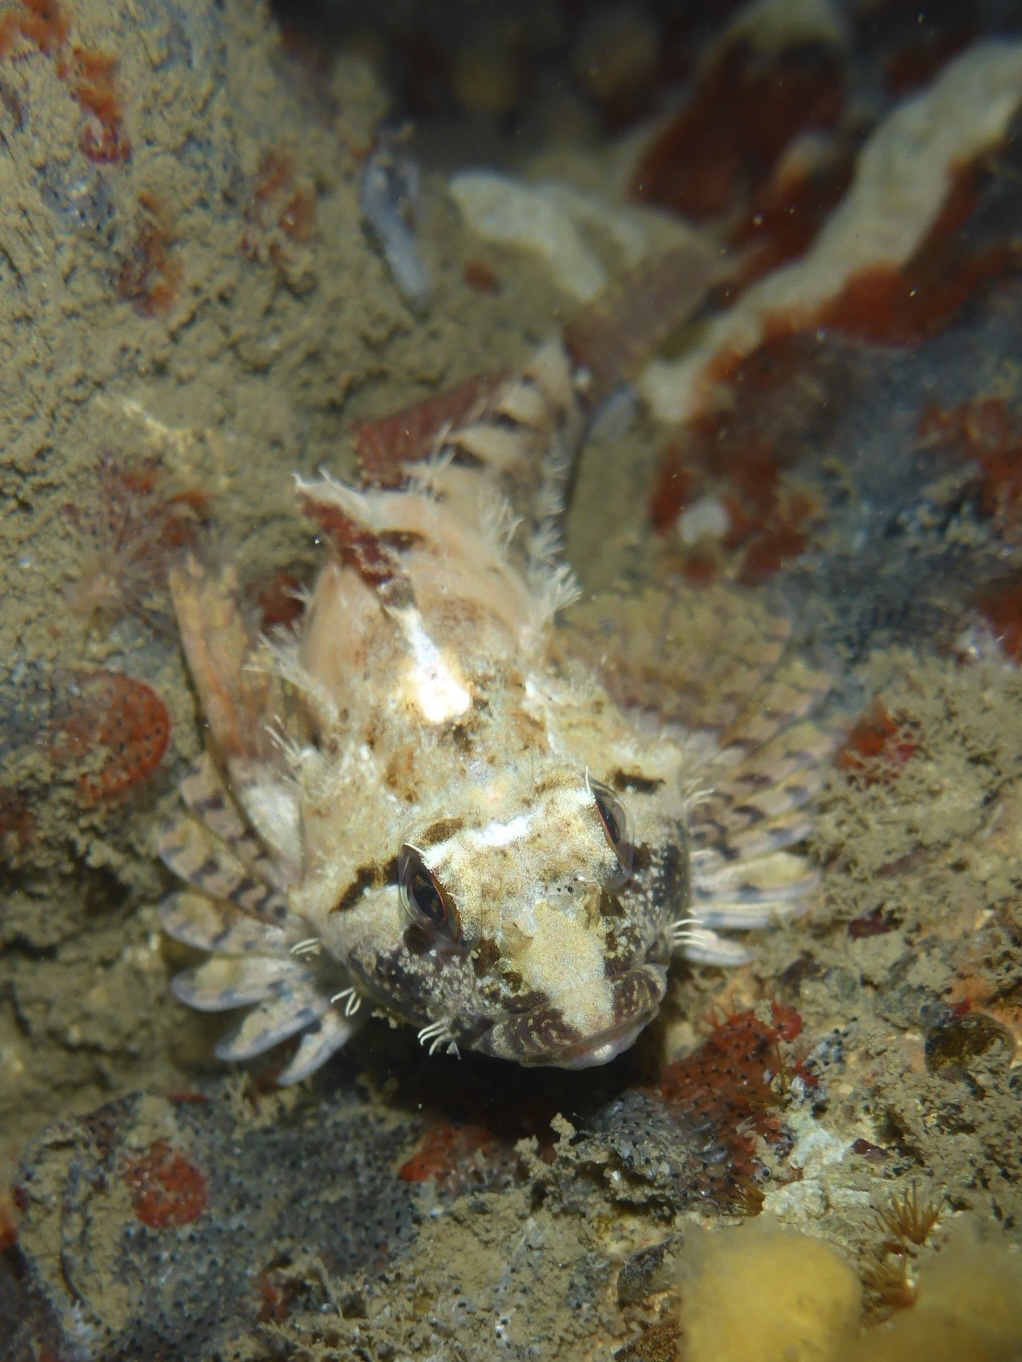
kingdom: Animalia
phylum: Chordata
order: Scorpaeniformes
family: Cottidae
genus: Oligocottus
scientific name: Oligocottus rubellio
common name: Rosy sculpin
